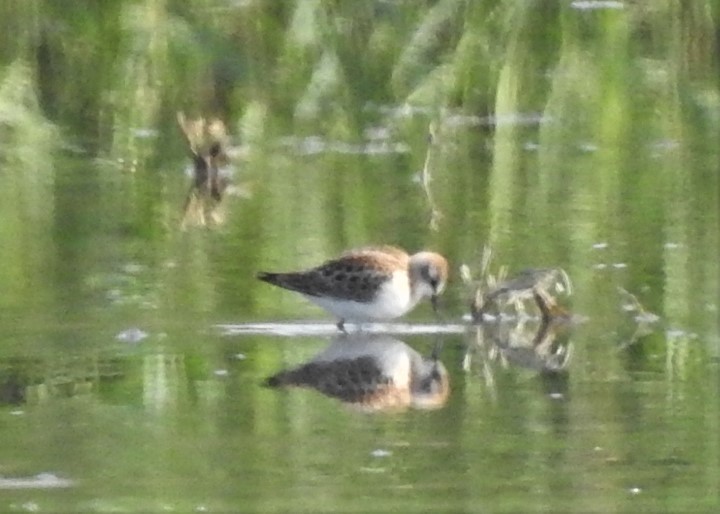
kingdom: Animalia
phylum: Chordata
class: Aves
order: Charadriiformes
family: Scolopacidae
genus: Calidris
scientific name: Calidris minuta
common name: Little stint
